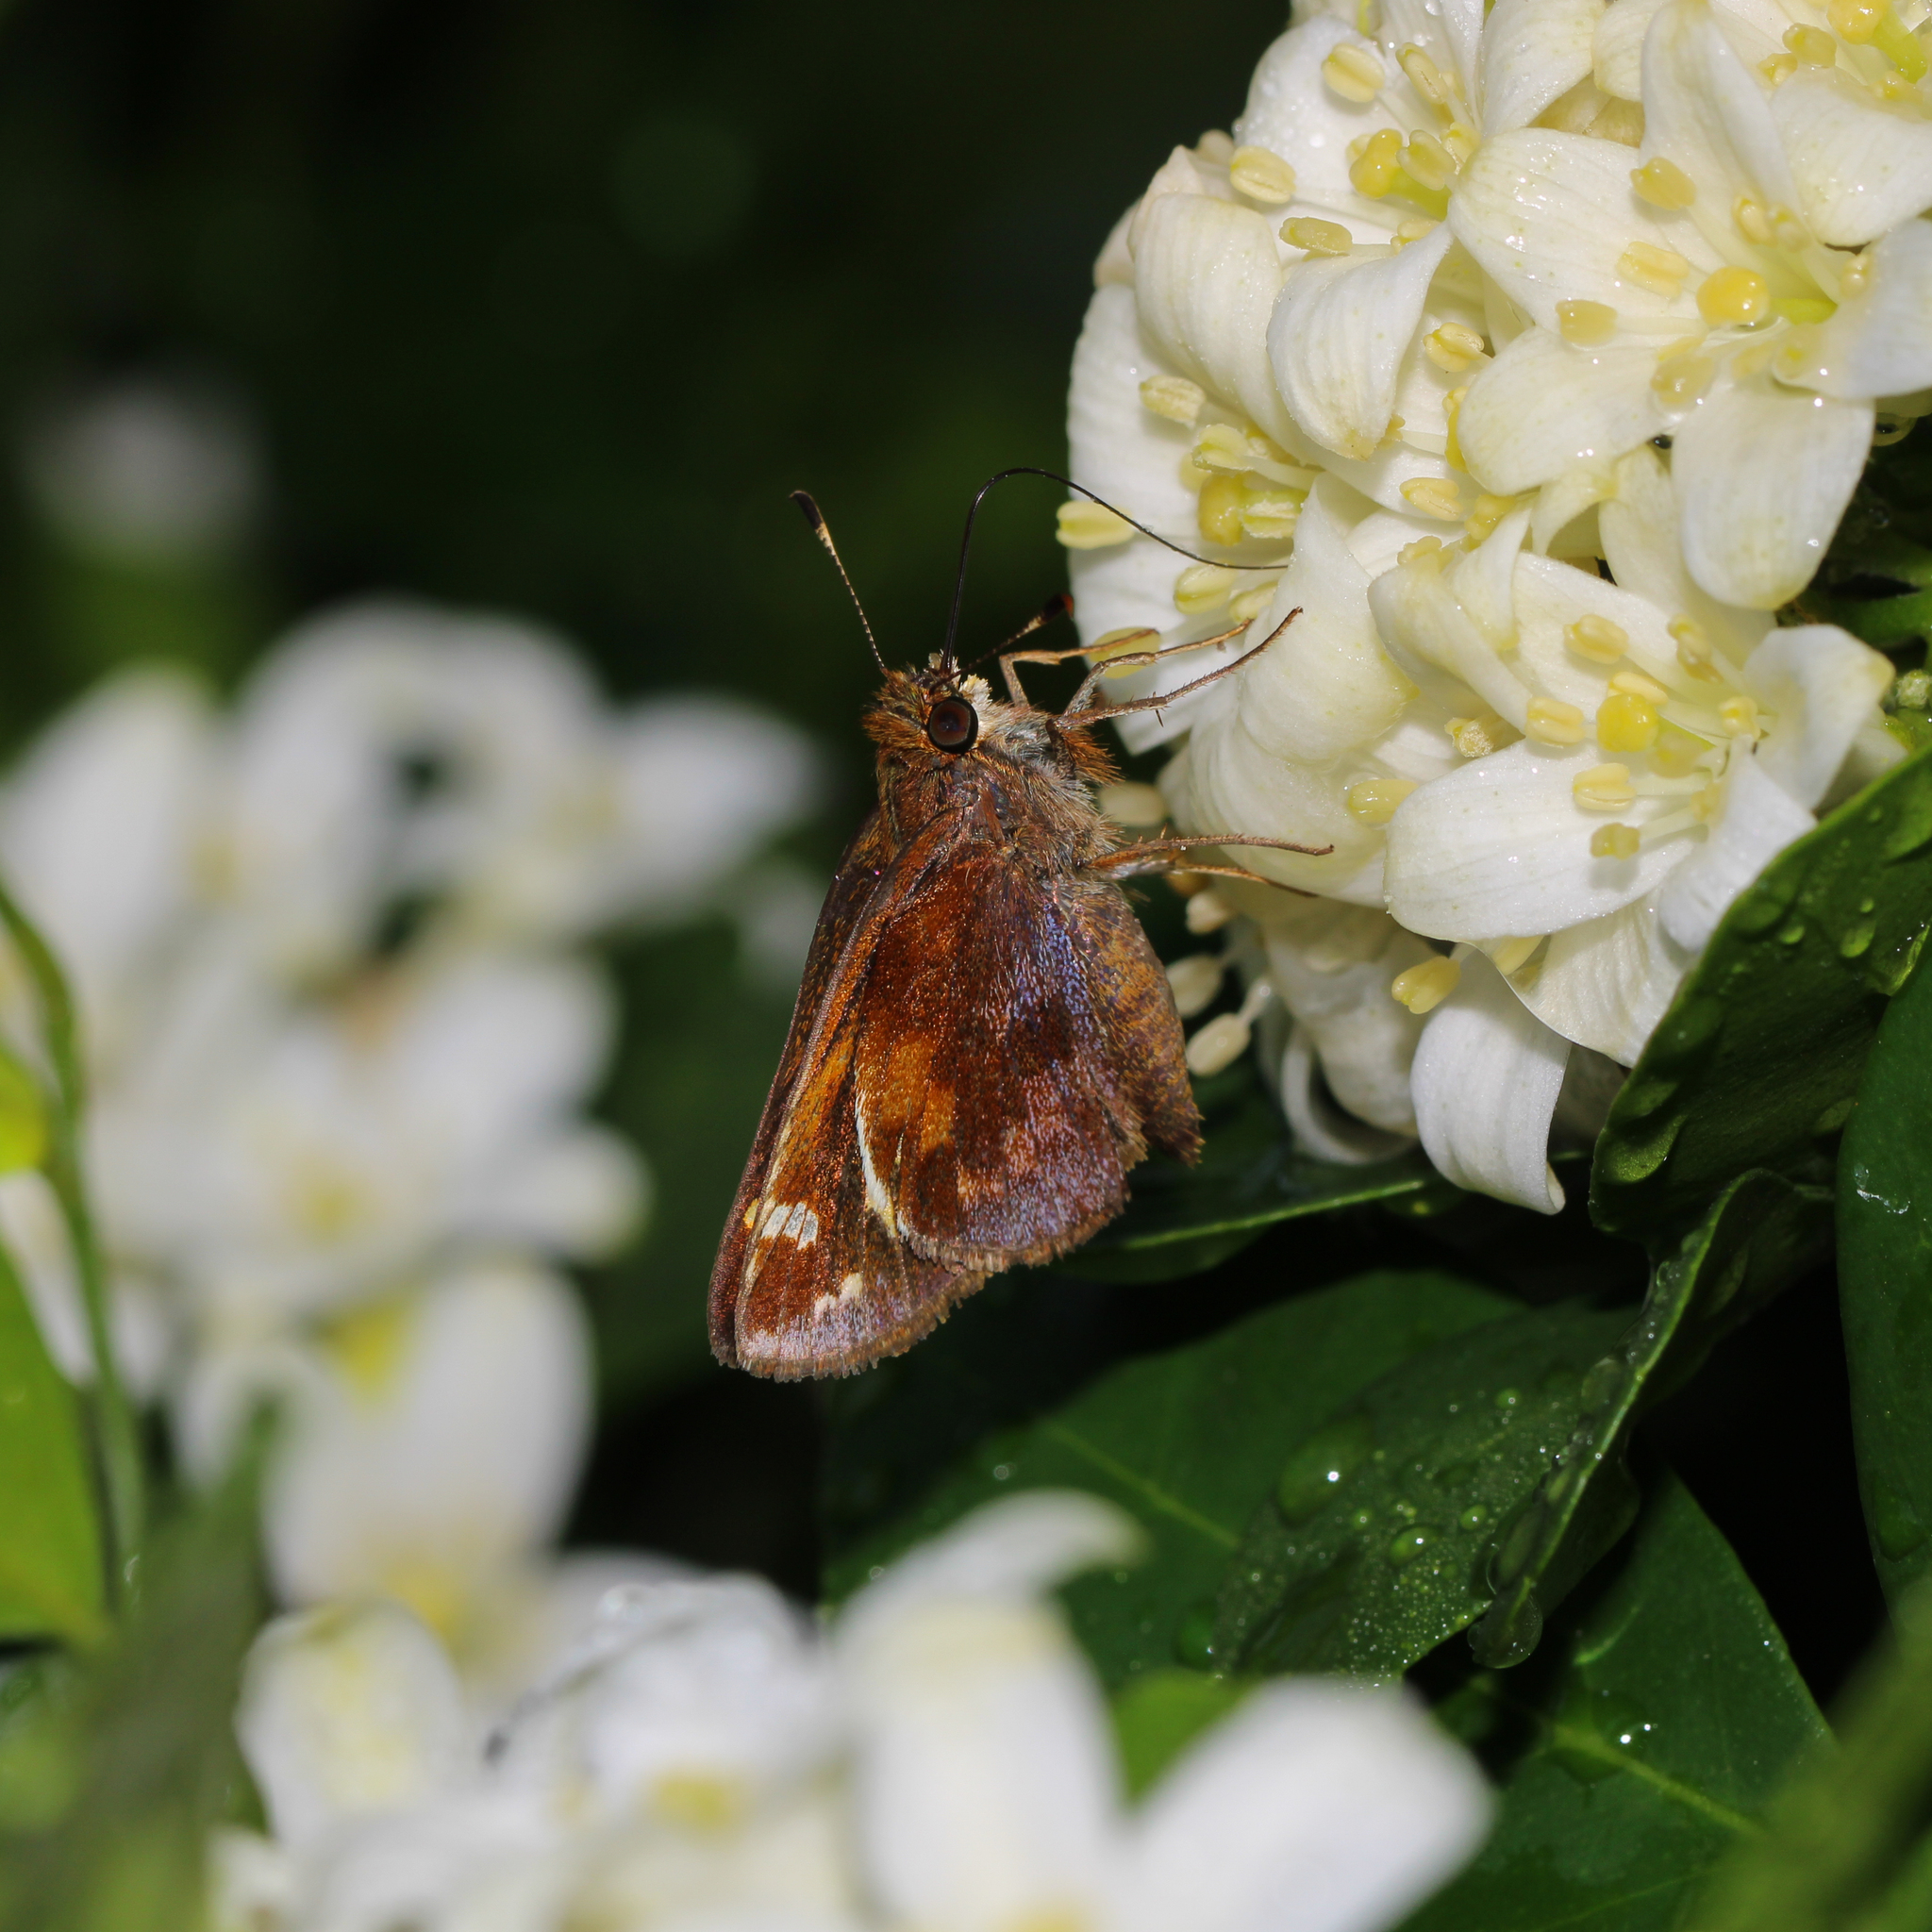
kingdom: Animalia
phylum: Arthropoda
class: Insecta
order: Lepidoptera
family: Hesperiidae
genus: Lon
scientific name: Lon zabulon
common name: Zabulon skipper
